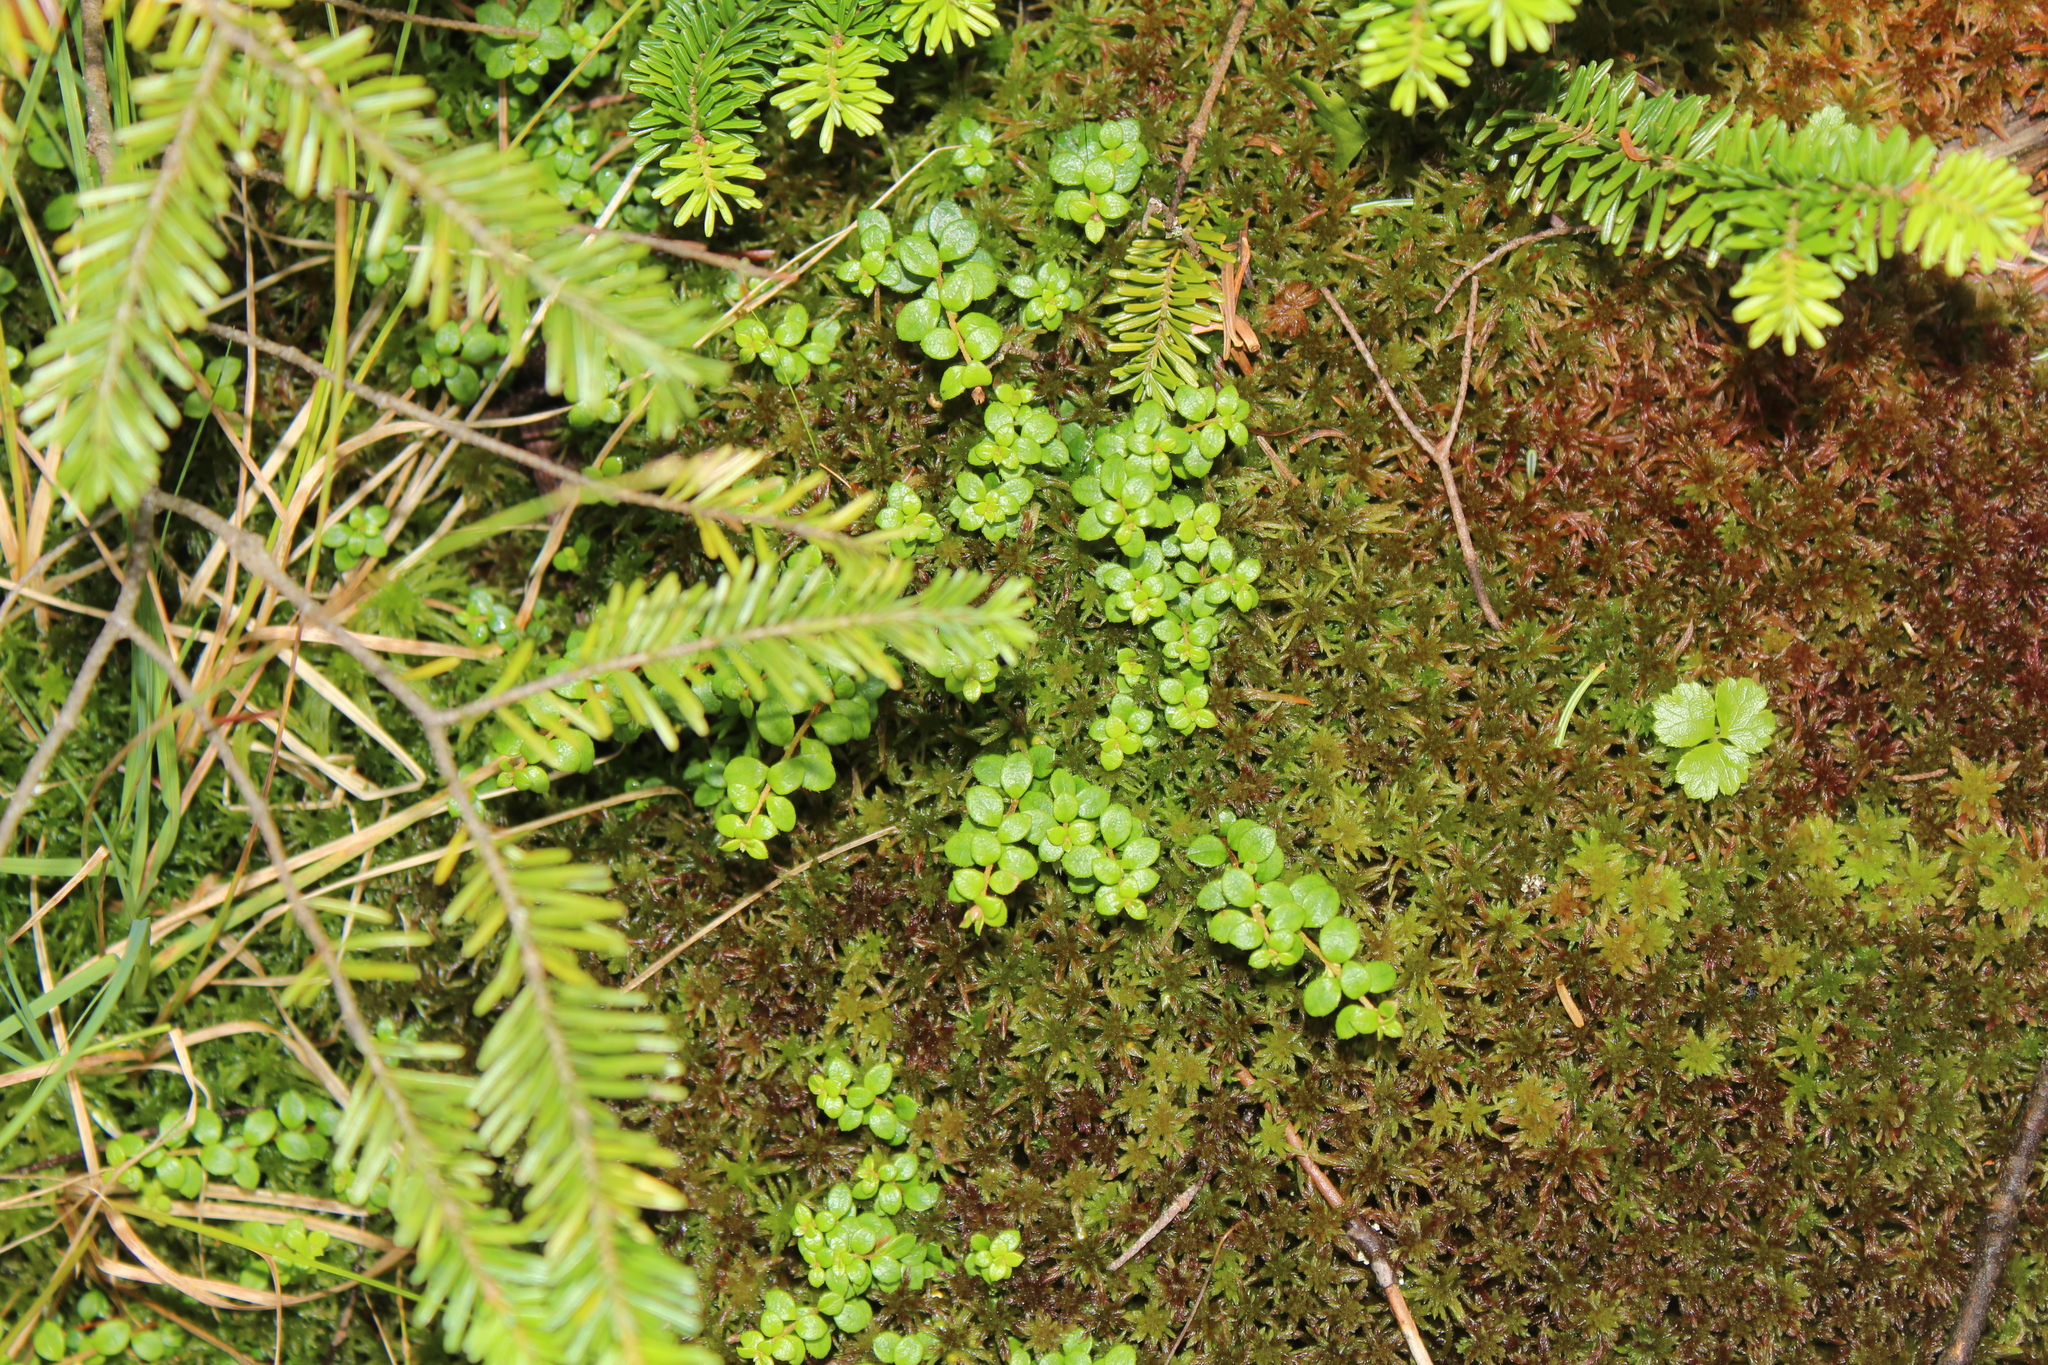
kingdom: Plantae
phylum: Tracheophyta
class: Magnoliopsida
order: Ericales
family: Ericaceae
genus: Gaultheria
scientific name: Gaultheria hispidula
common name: Cancer wintergreen
